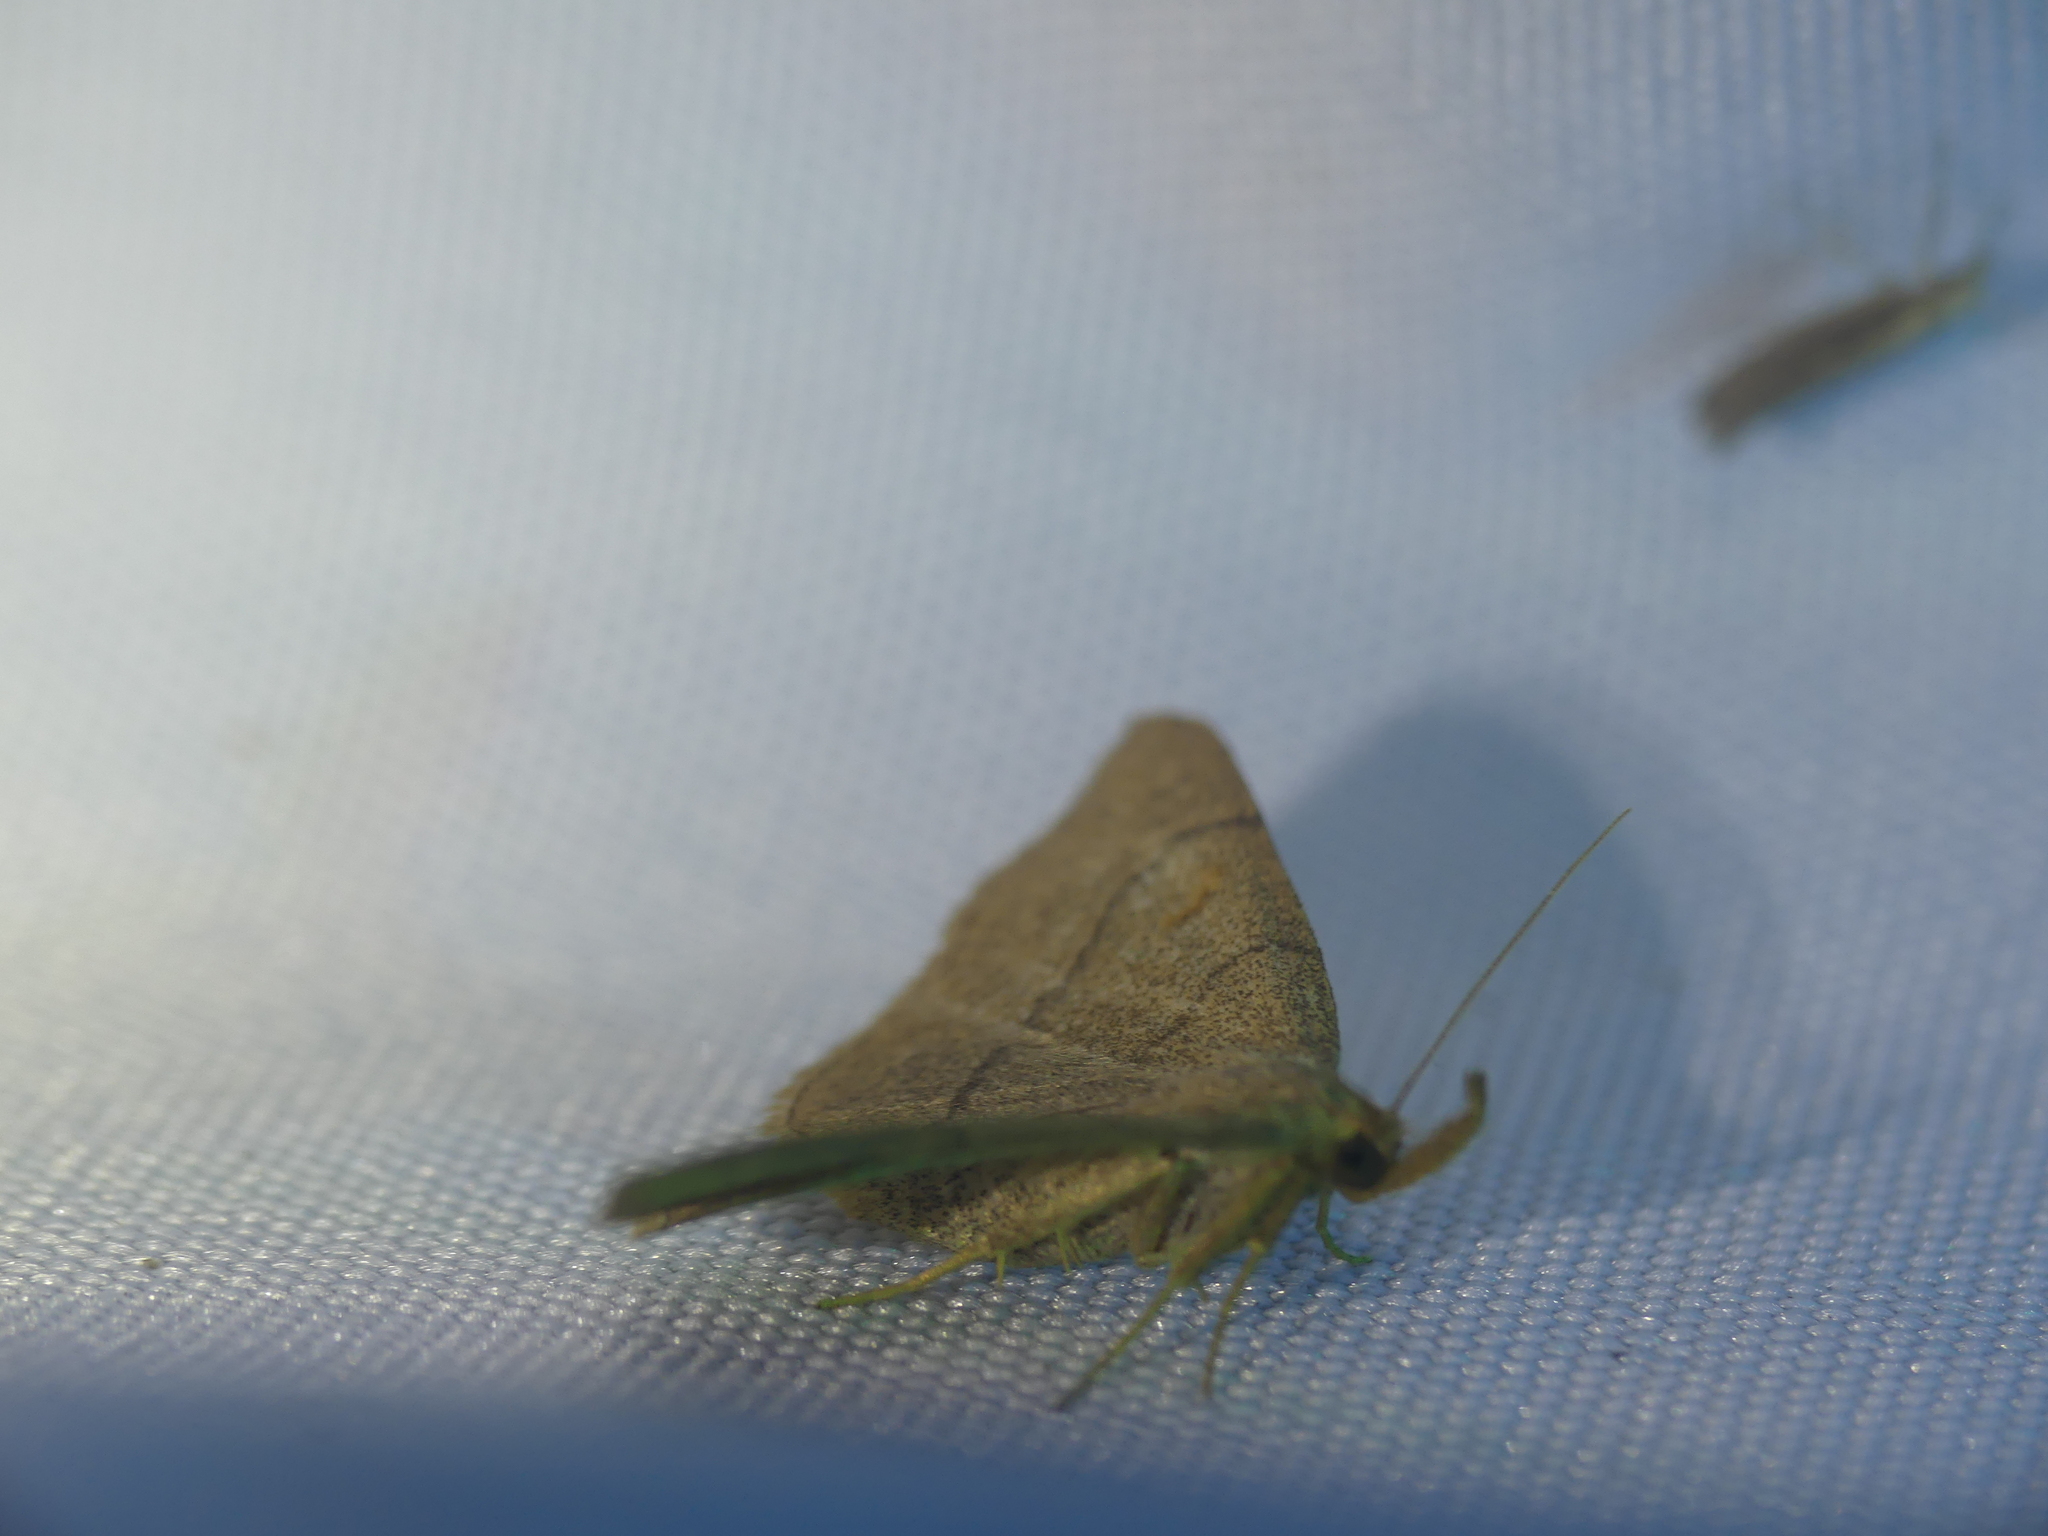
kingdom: Animalia
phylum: Arthropoda
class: Insecta
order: Lepidoptera
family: Erebidae
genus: Paracolax
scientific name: Paracolax tristalis
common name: Clay fan-foot
